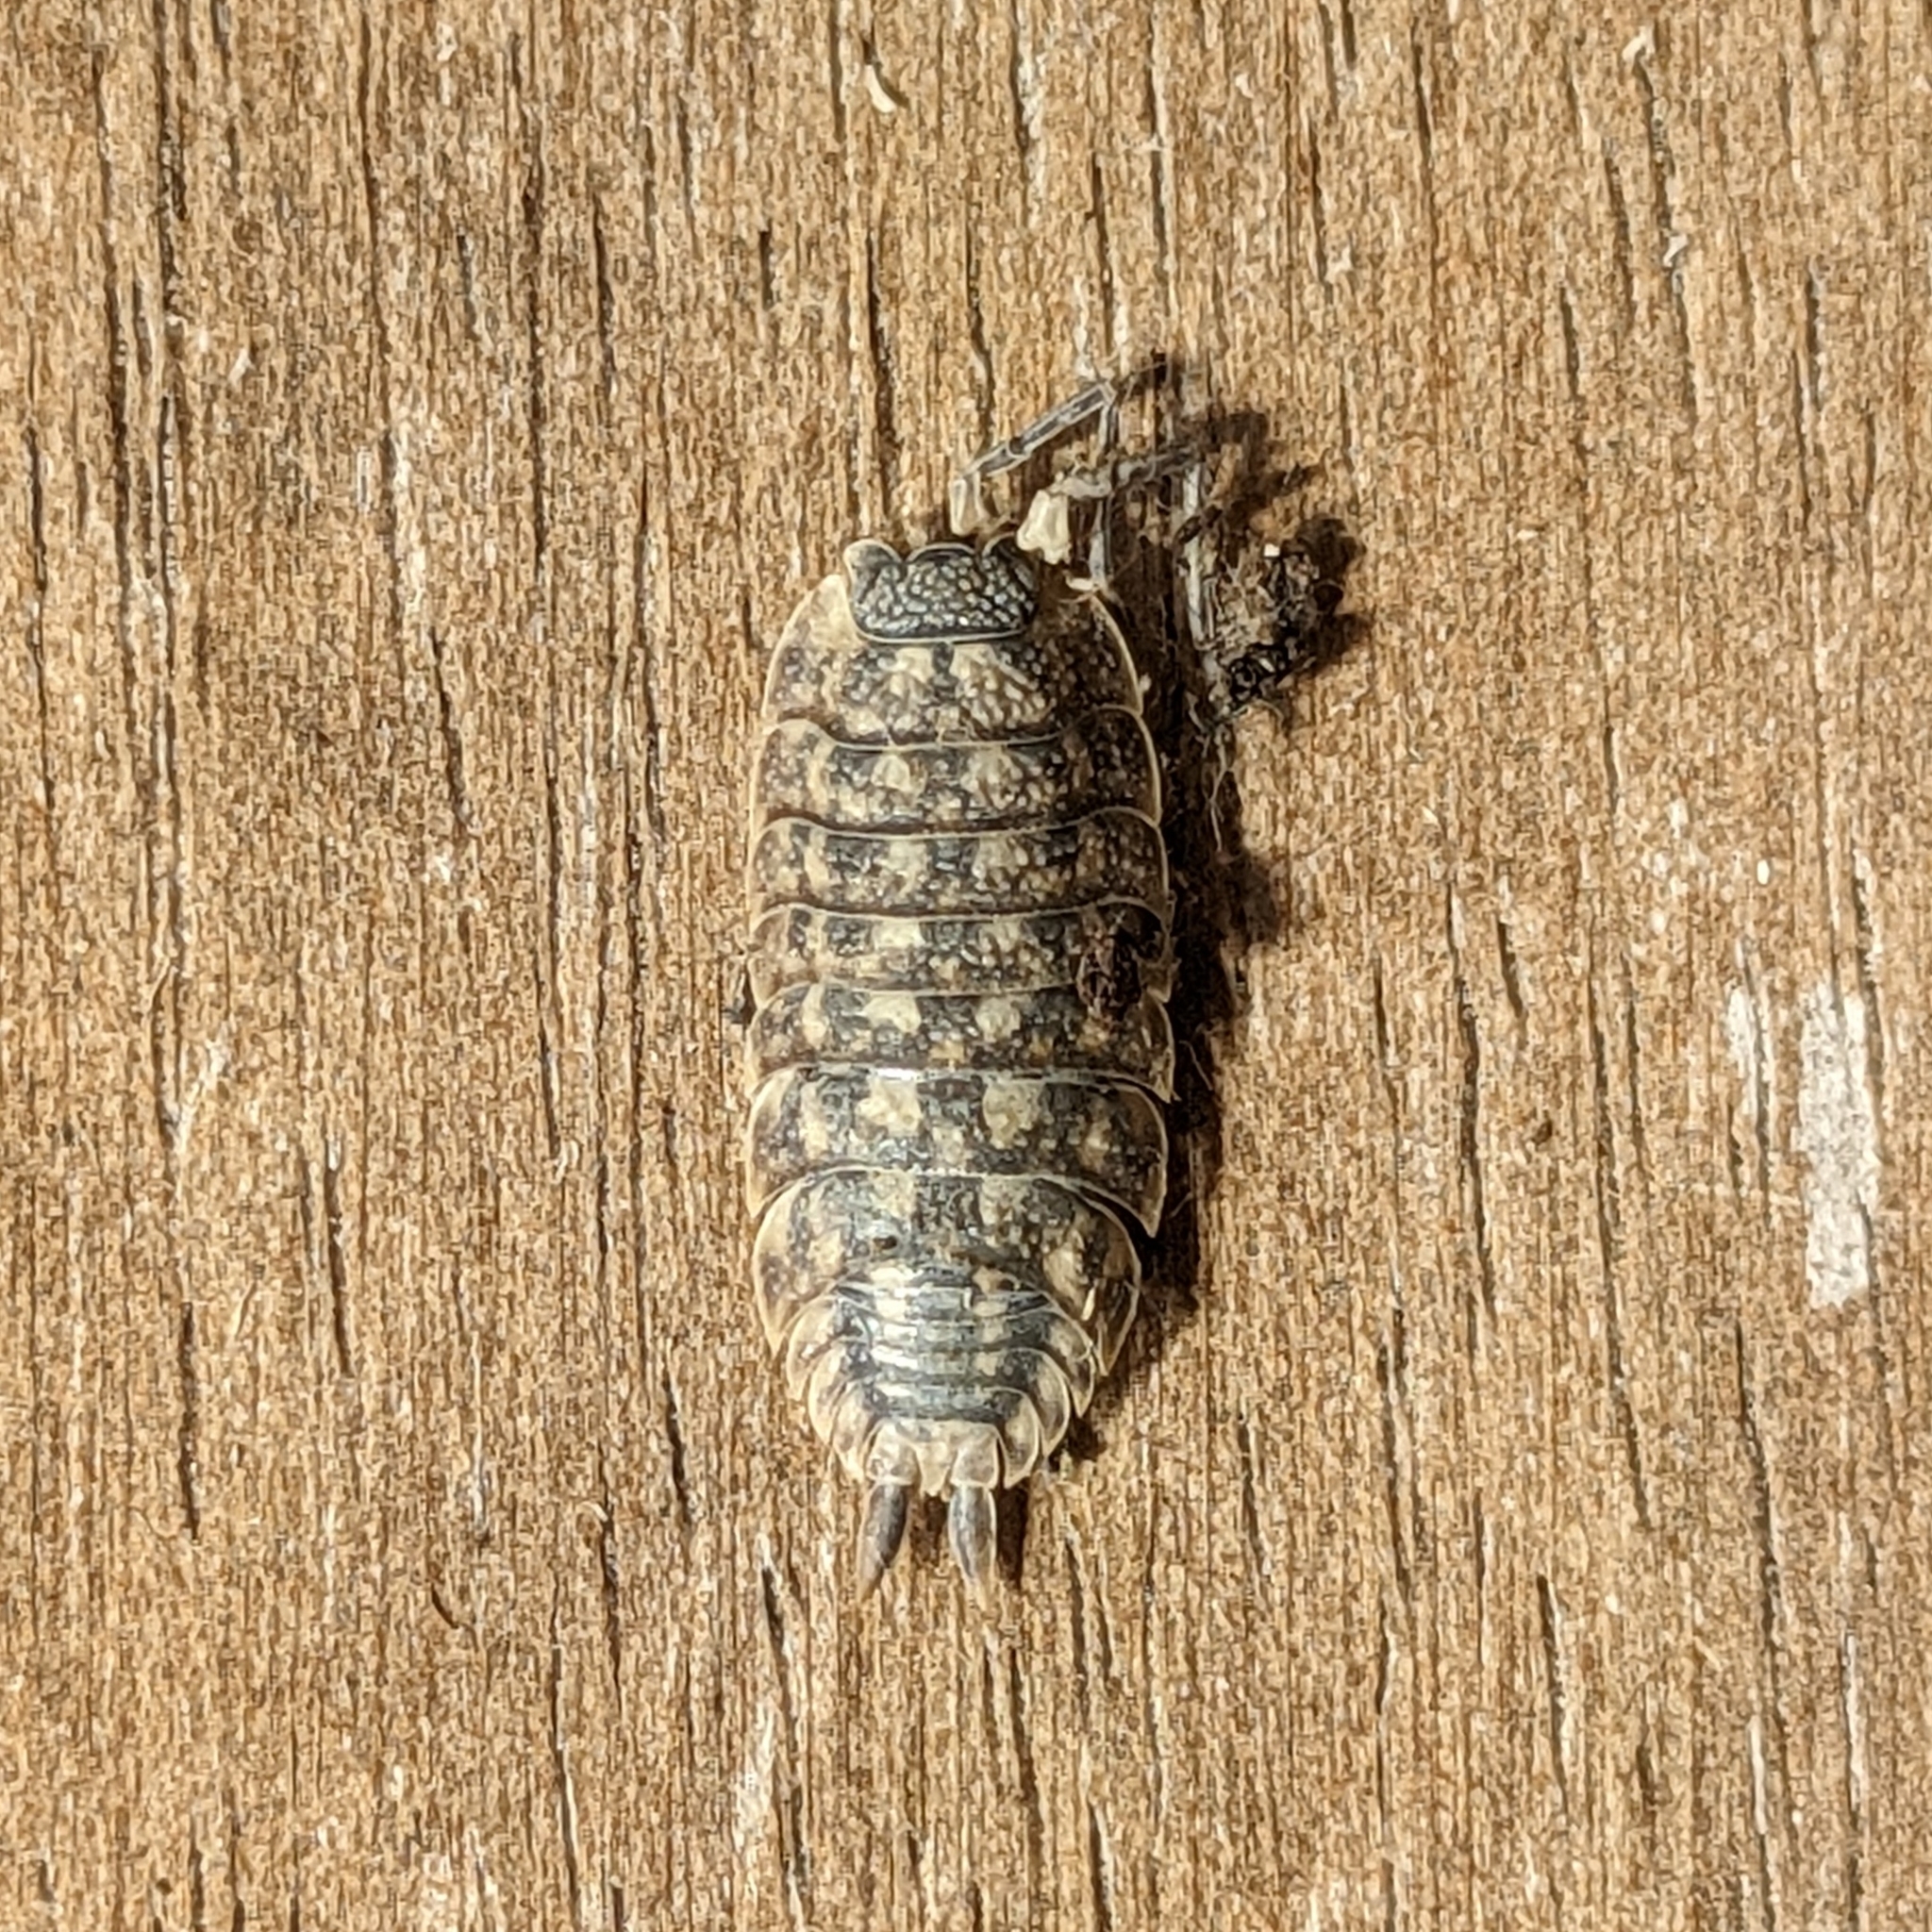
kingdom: Animalia
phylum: Arthropoda
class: Malacostraca
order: Isopoda
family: Porcellionidae
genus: Porcellio
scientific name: Porcellio spinicornis
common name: Painted woodlouse
